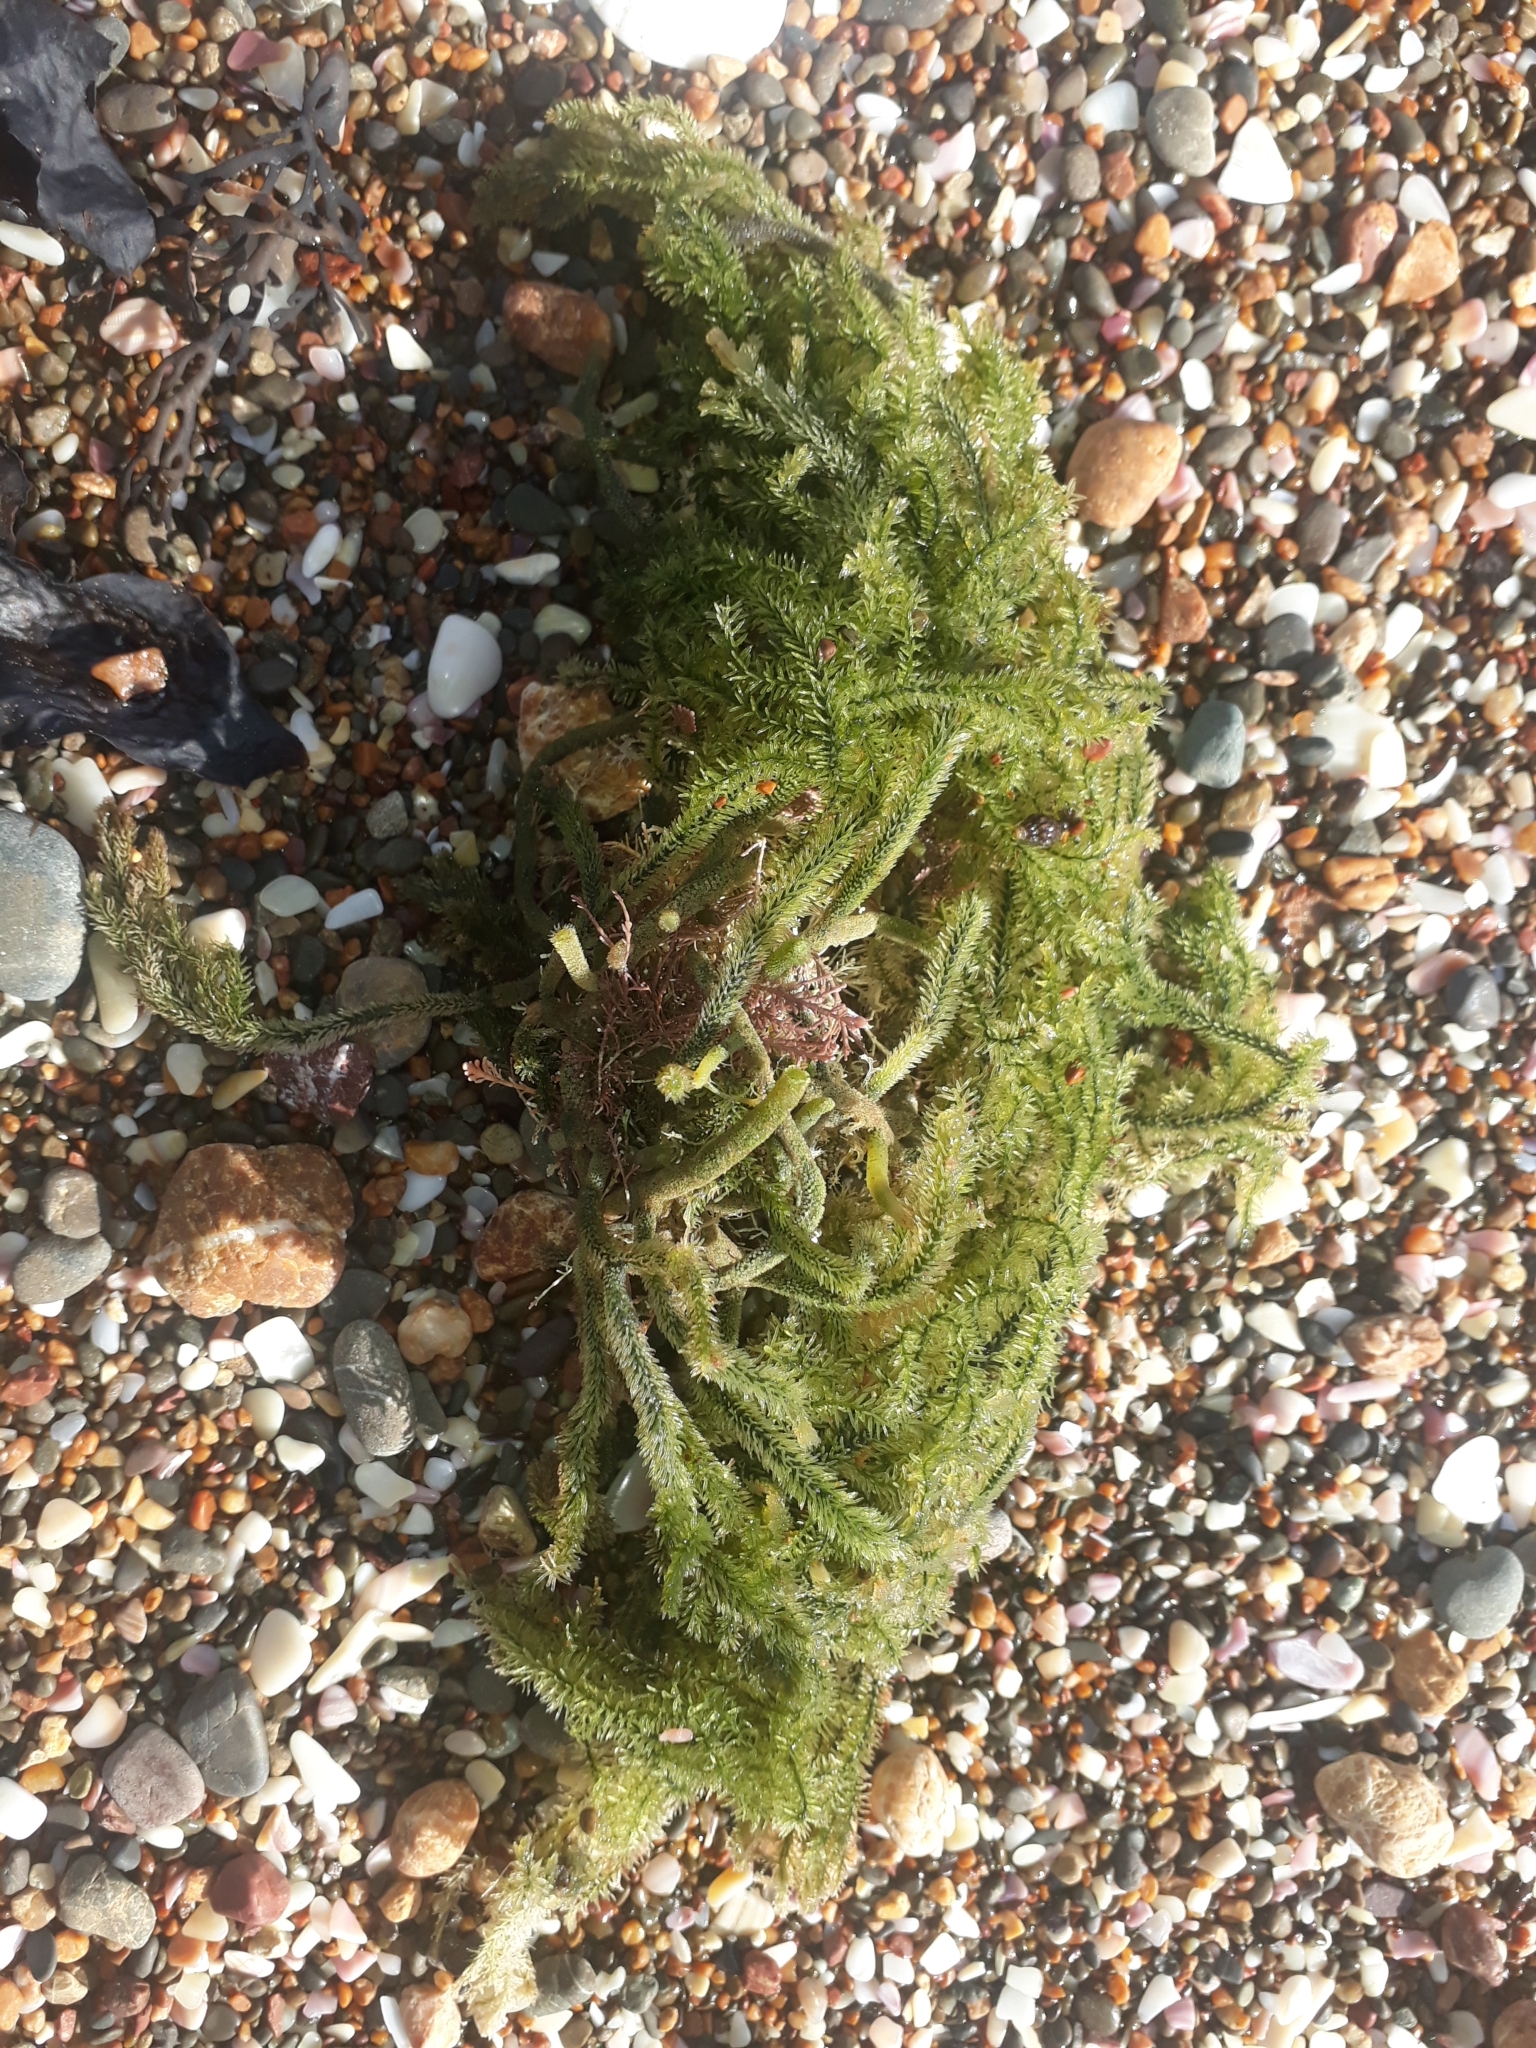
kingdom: Plantae
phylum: Chlorophyta
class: Ulvophyceae
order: Bryopsidales
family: Caulerpaceae
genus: Caulerpa
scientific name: Caulerpa flexilis
